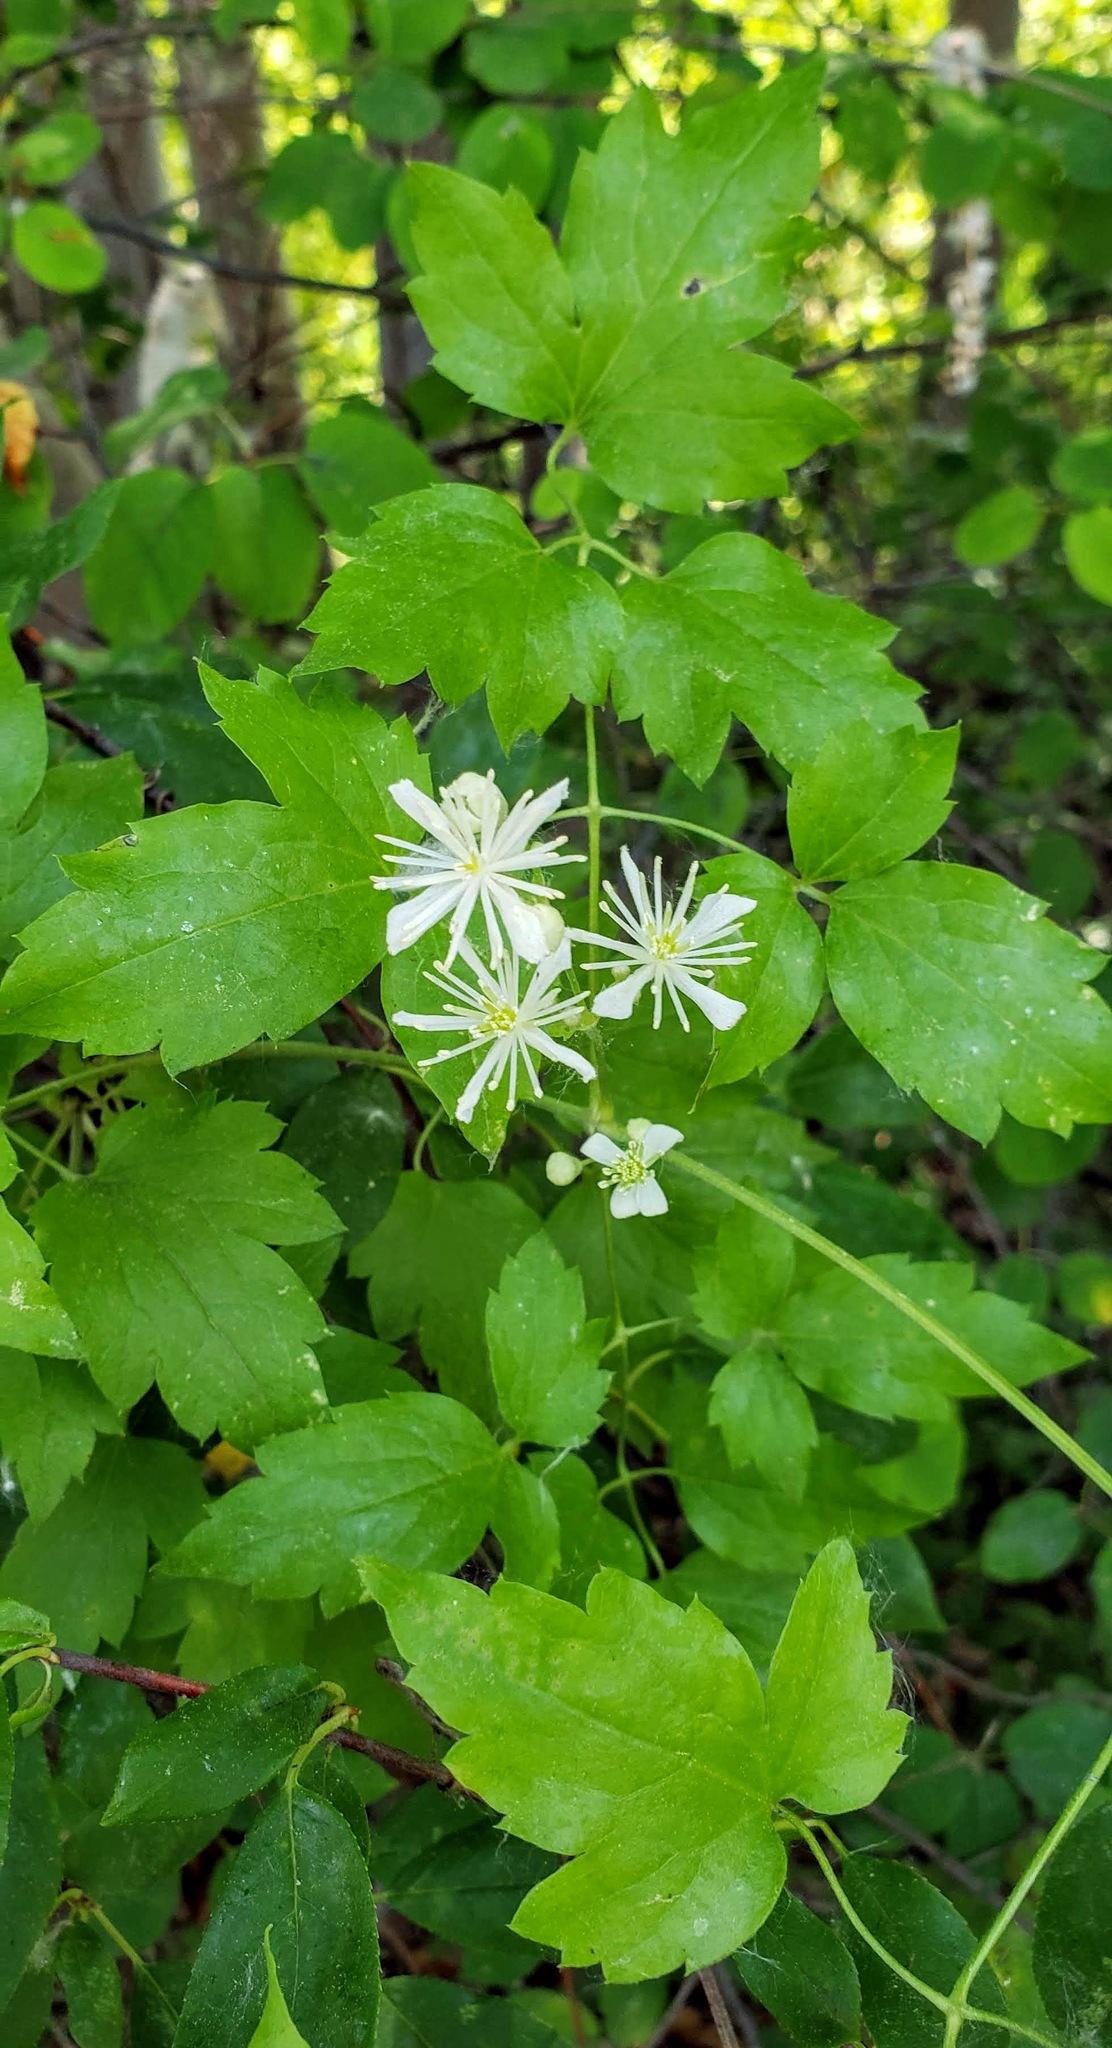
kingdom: Plantae
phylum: Tracheophyta
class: Magnoliopsida
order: Ranunculales
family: Ranunculaceae
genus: Clematis
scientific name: Clematis ligusticifolia
